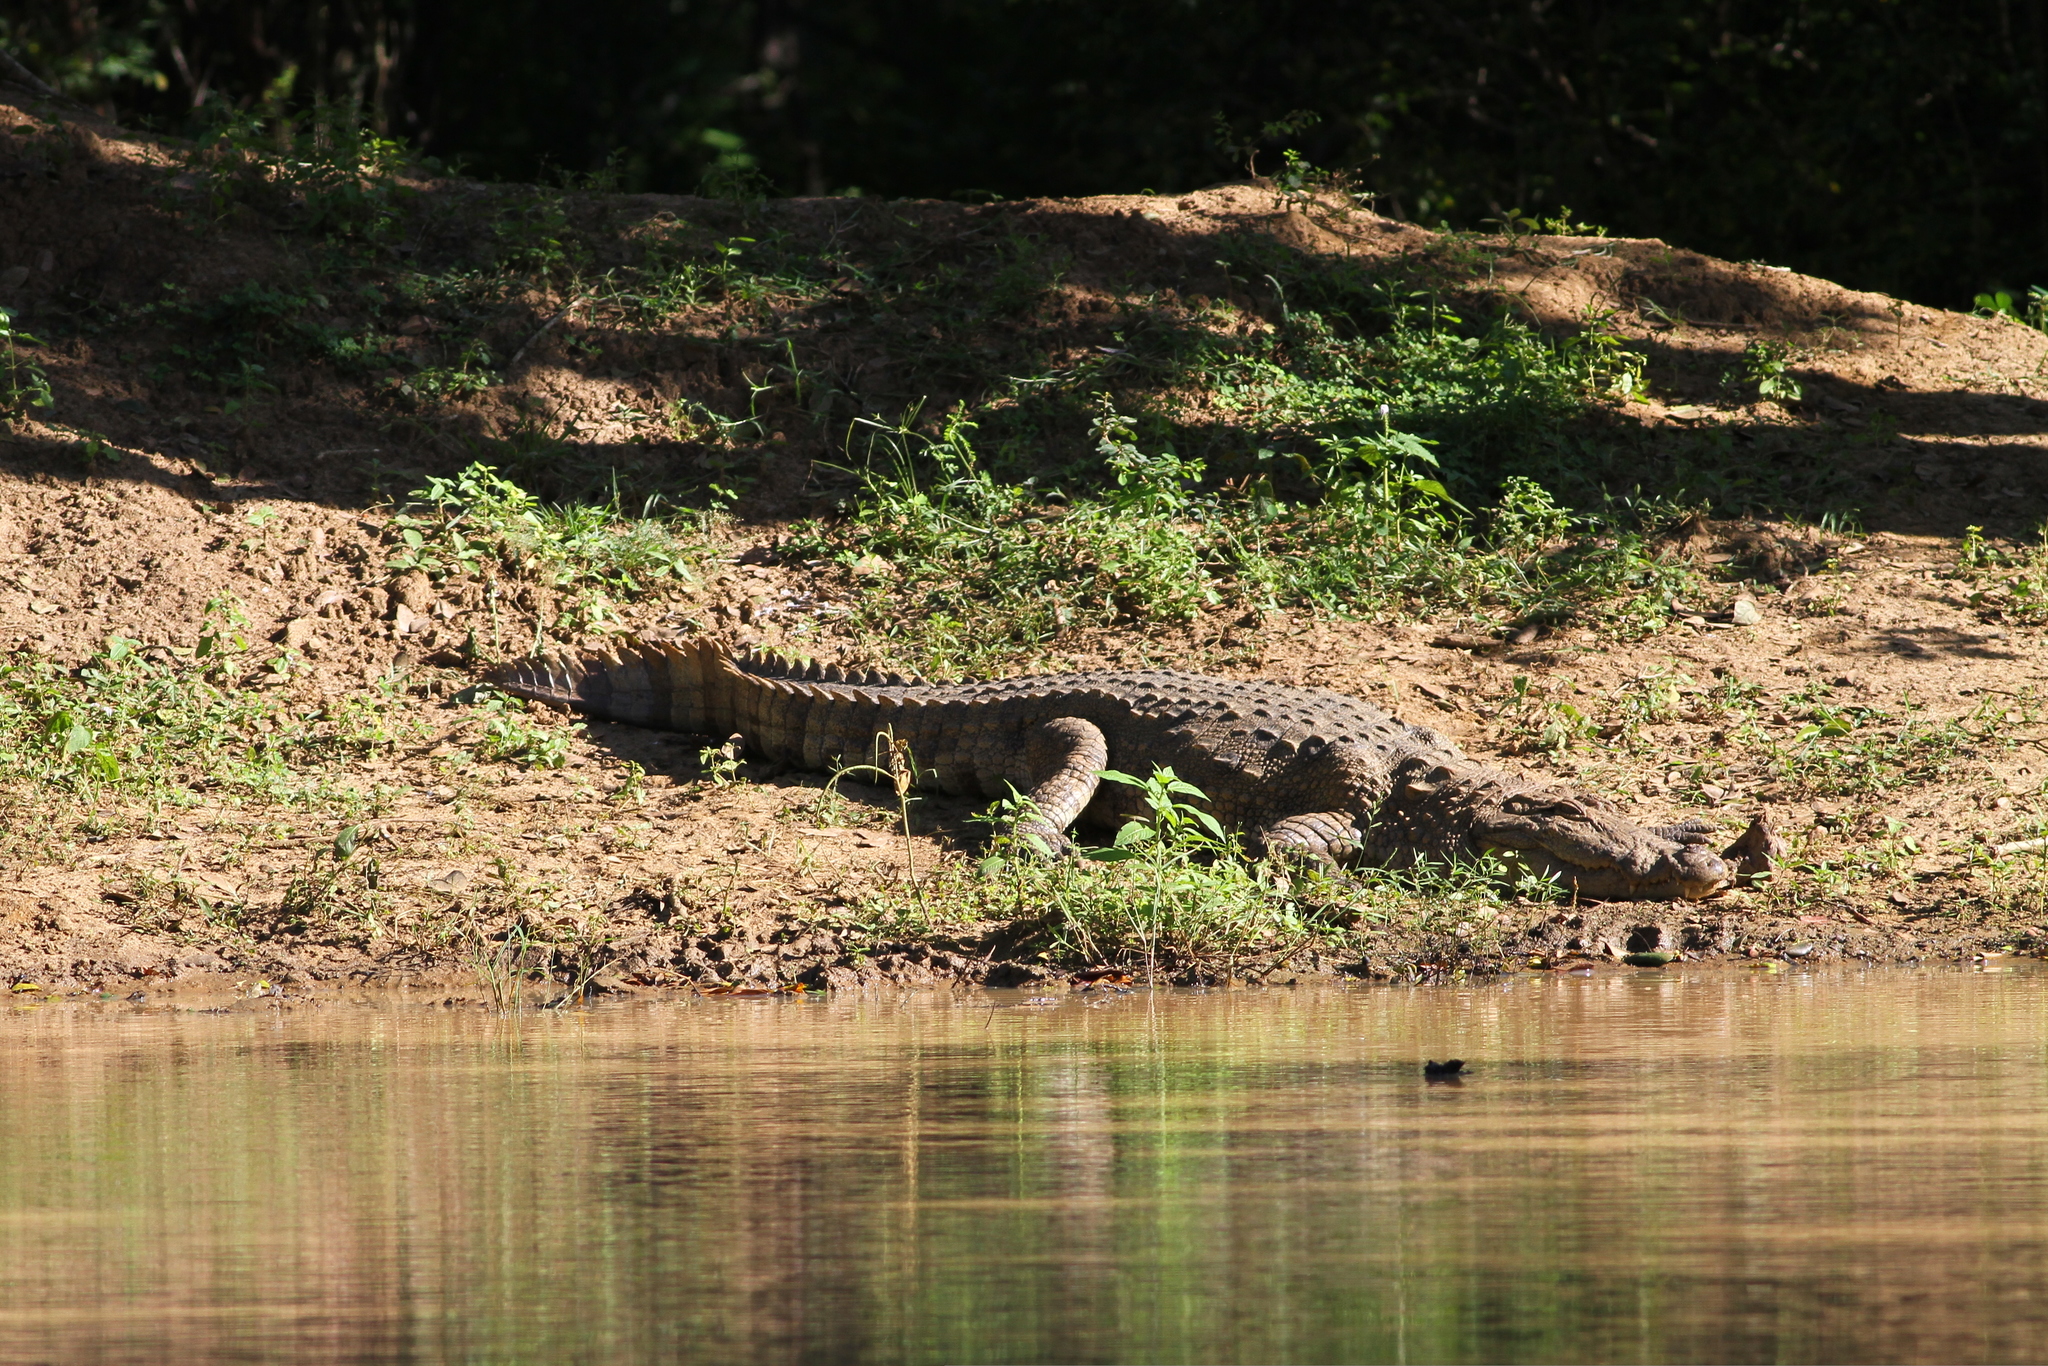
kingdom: Animalia
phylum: Chordata
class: Crocodylia
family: Crocodylidae
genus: Crocodylus
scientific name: Crocodylus palustris
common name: Mugger crocodile
